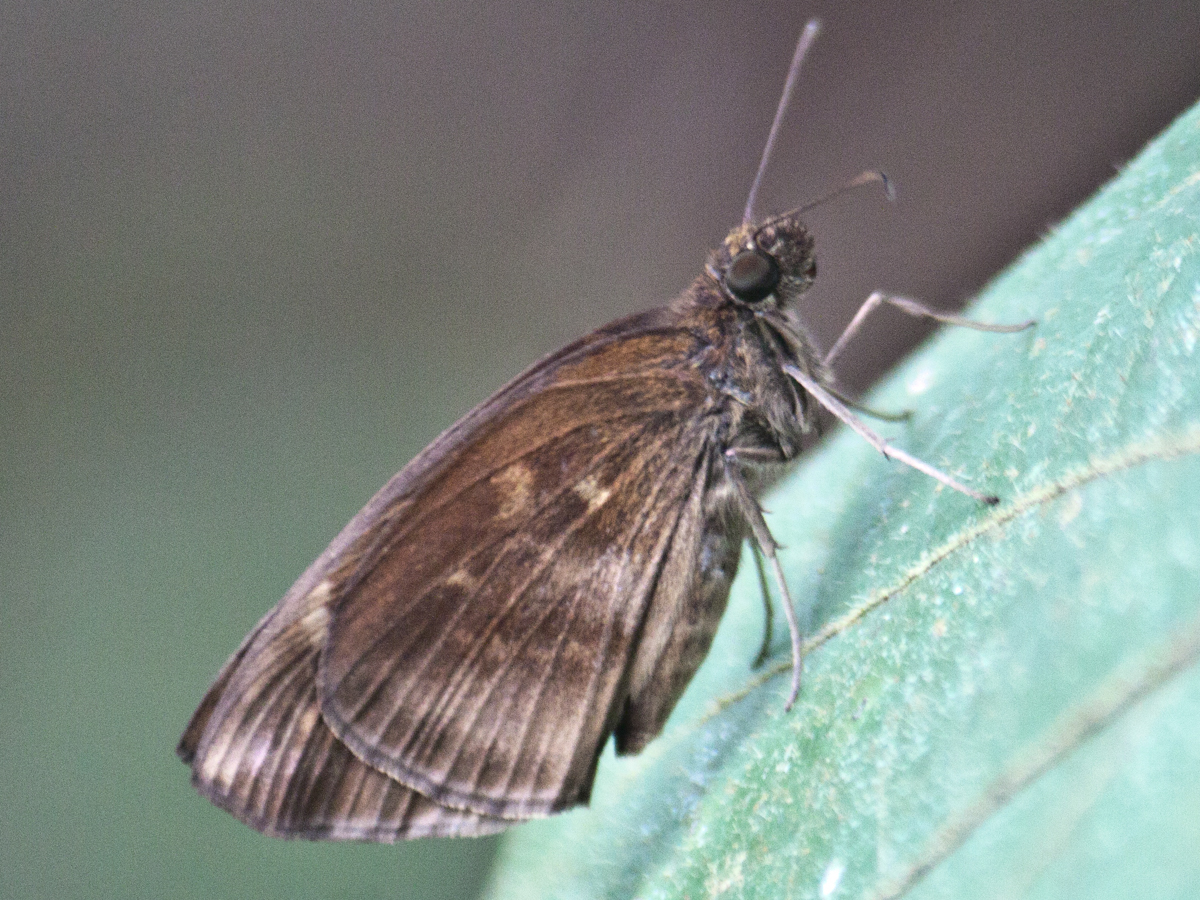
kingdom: Animalia
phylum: Arthropoda
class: Insecta
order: Lepidoptera
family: Hesperiidae
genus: Psolos
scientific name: Psolos fuligo
